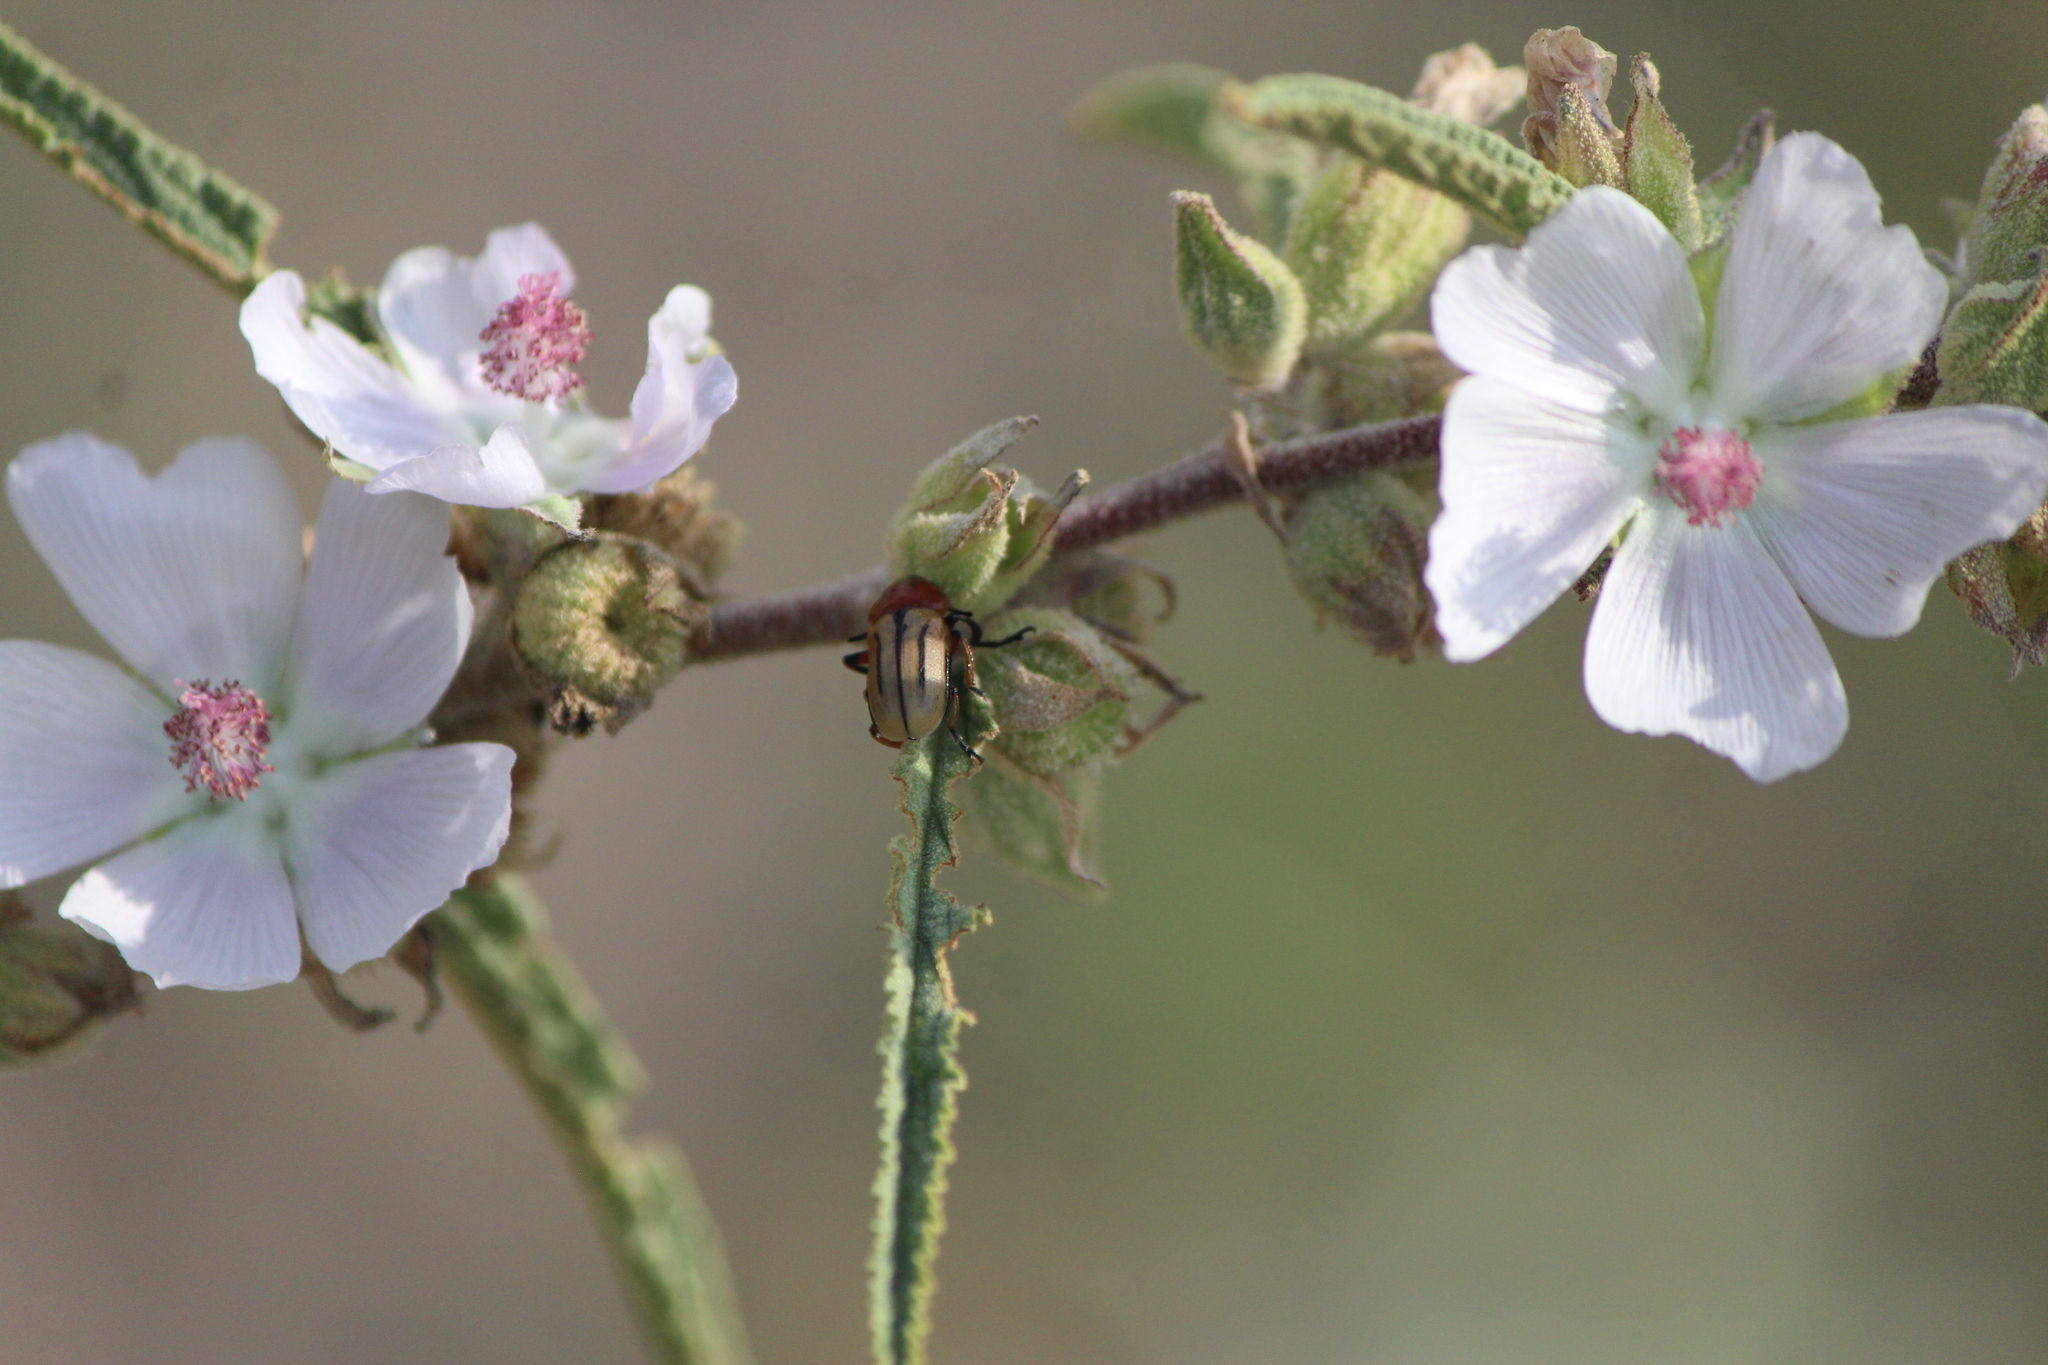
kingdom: Animalia
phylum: Arthropoda
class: Insecta
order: Coleoptera
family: Chrysomelidae
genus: Anomoea
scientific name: Anomoea rufifrons
